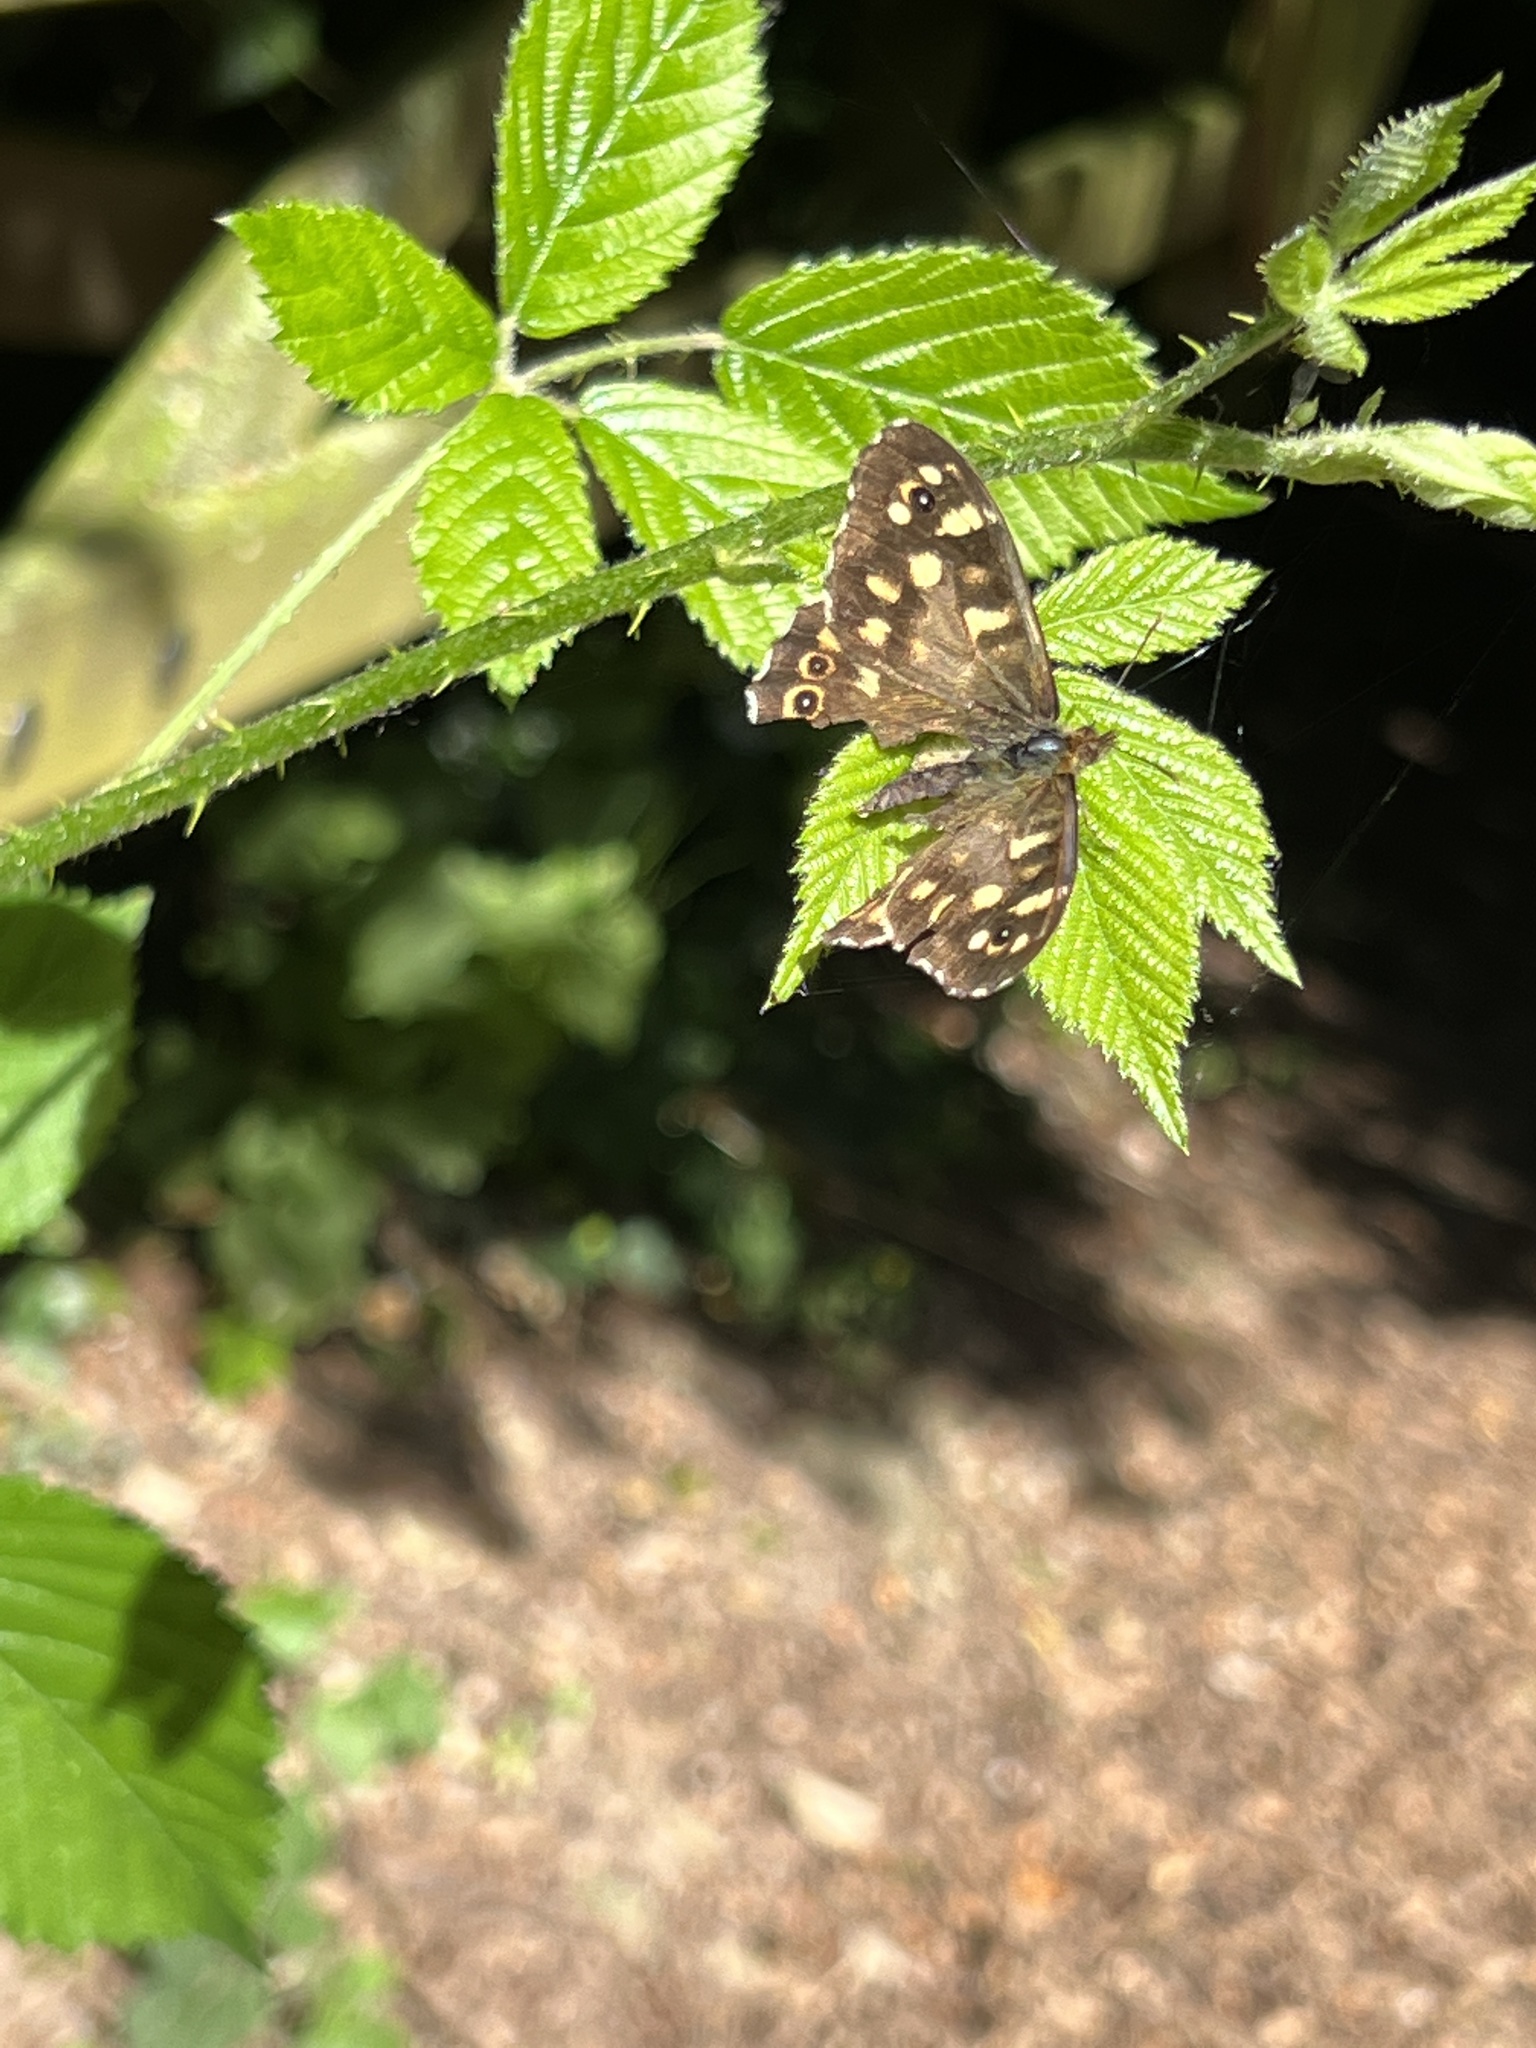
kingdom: Animalia
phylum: Arthropoda
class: Insecta
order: Lepidoptera
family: Nymphalidae
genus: Pararge
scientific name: Pararge aegeria
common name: Speckled wood
